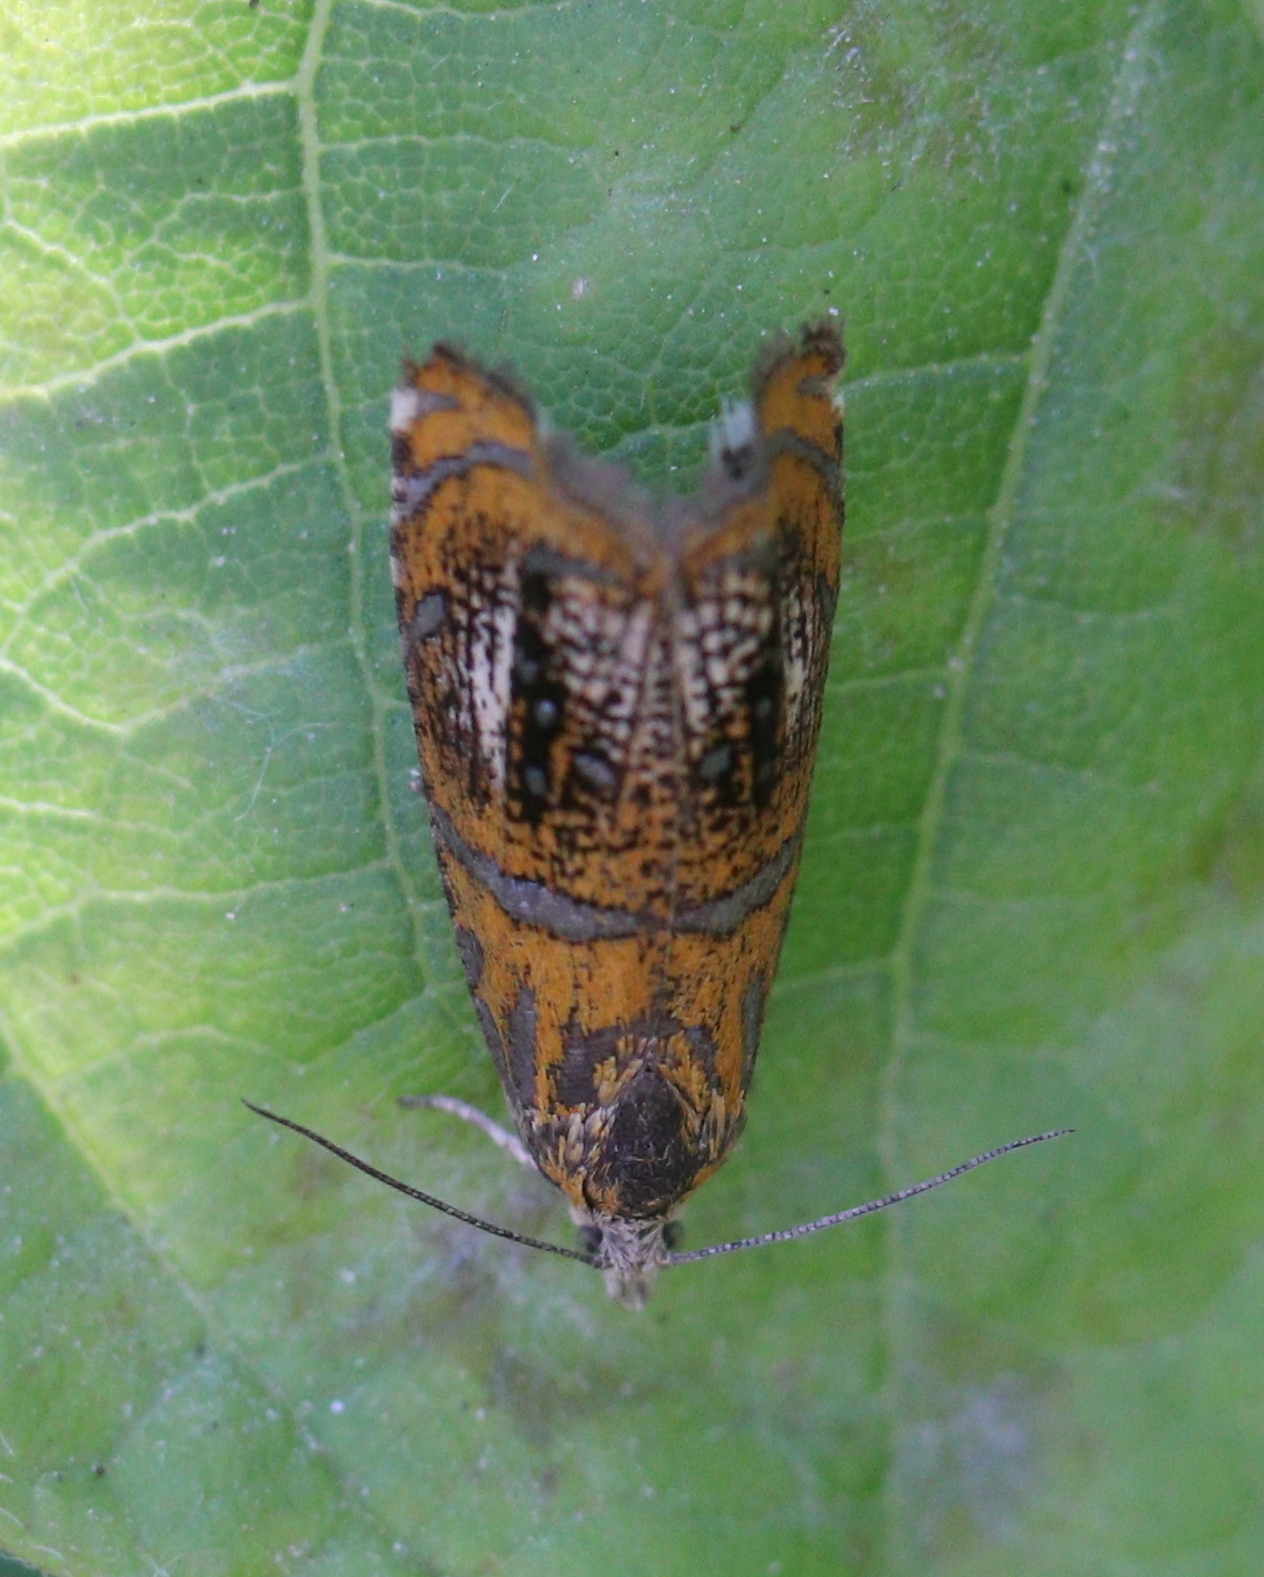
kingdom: Animalia
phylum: Arthropoda
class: Insecta
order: Lepidoptera
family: Tortricidae
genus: Olethreutes
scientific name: Olethreutes arcuella
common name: Arched marble
